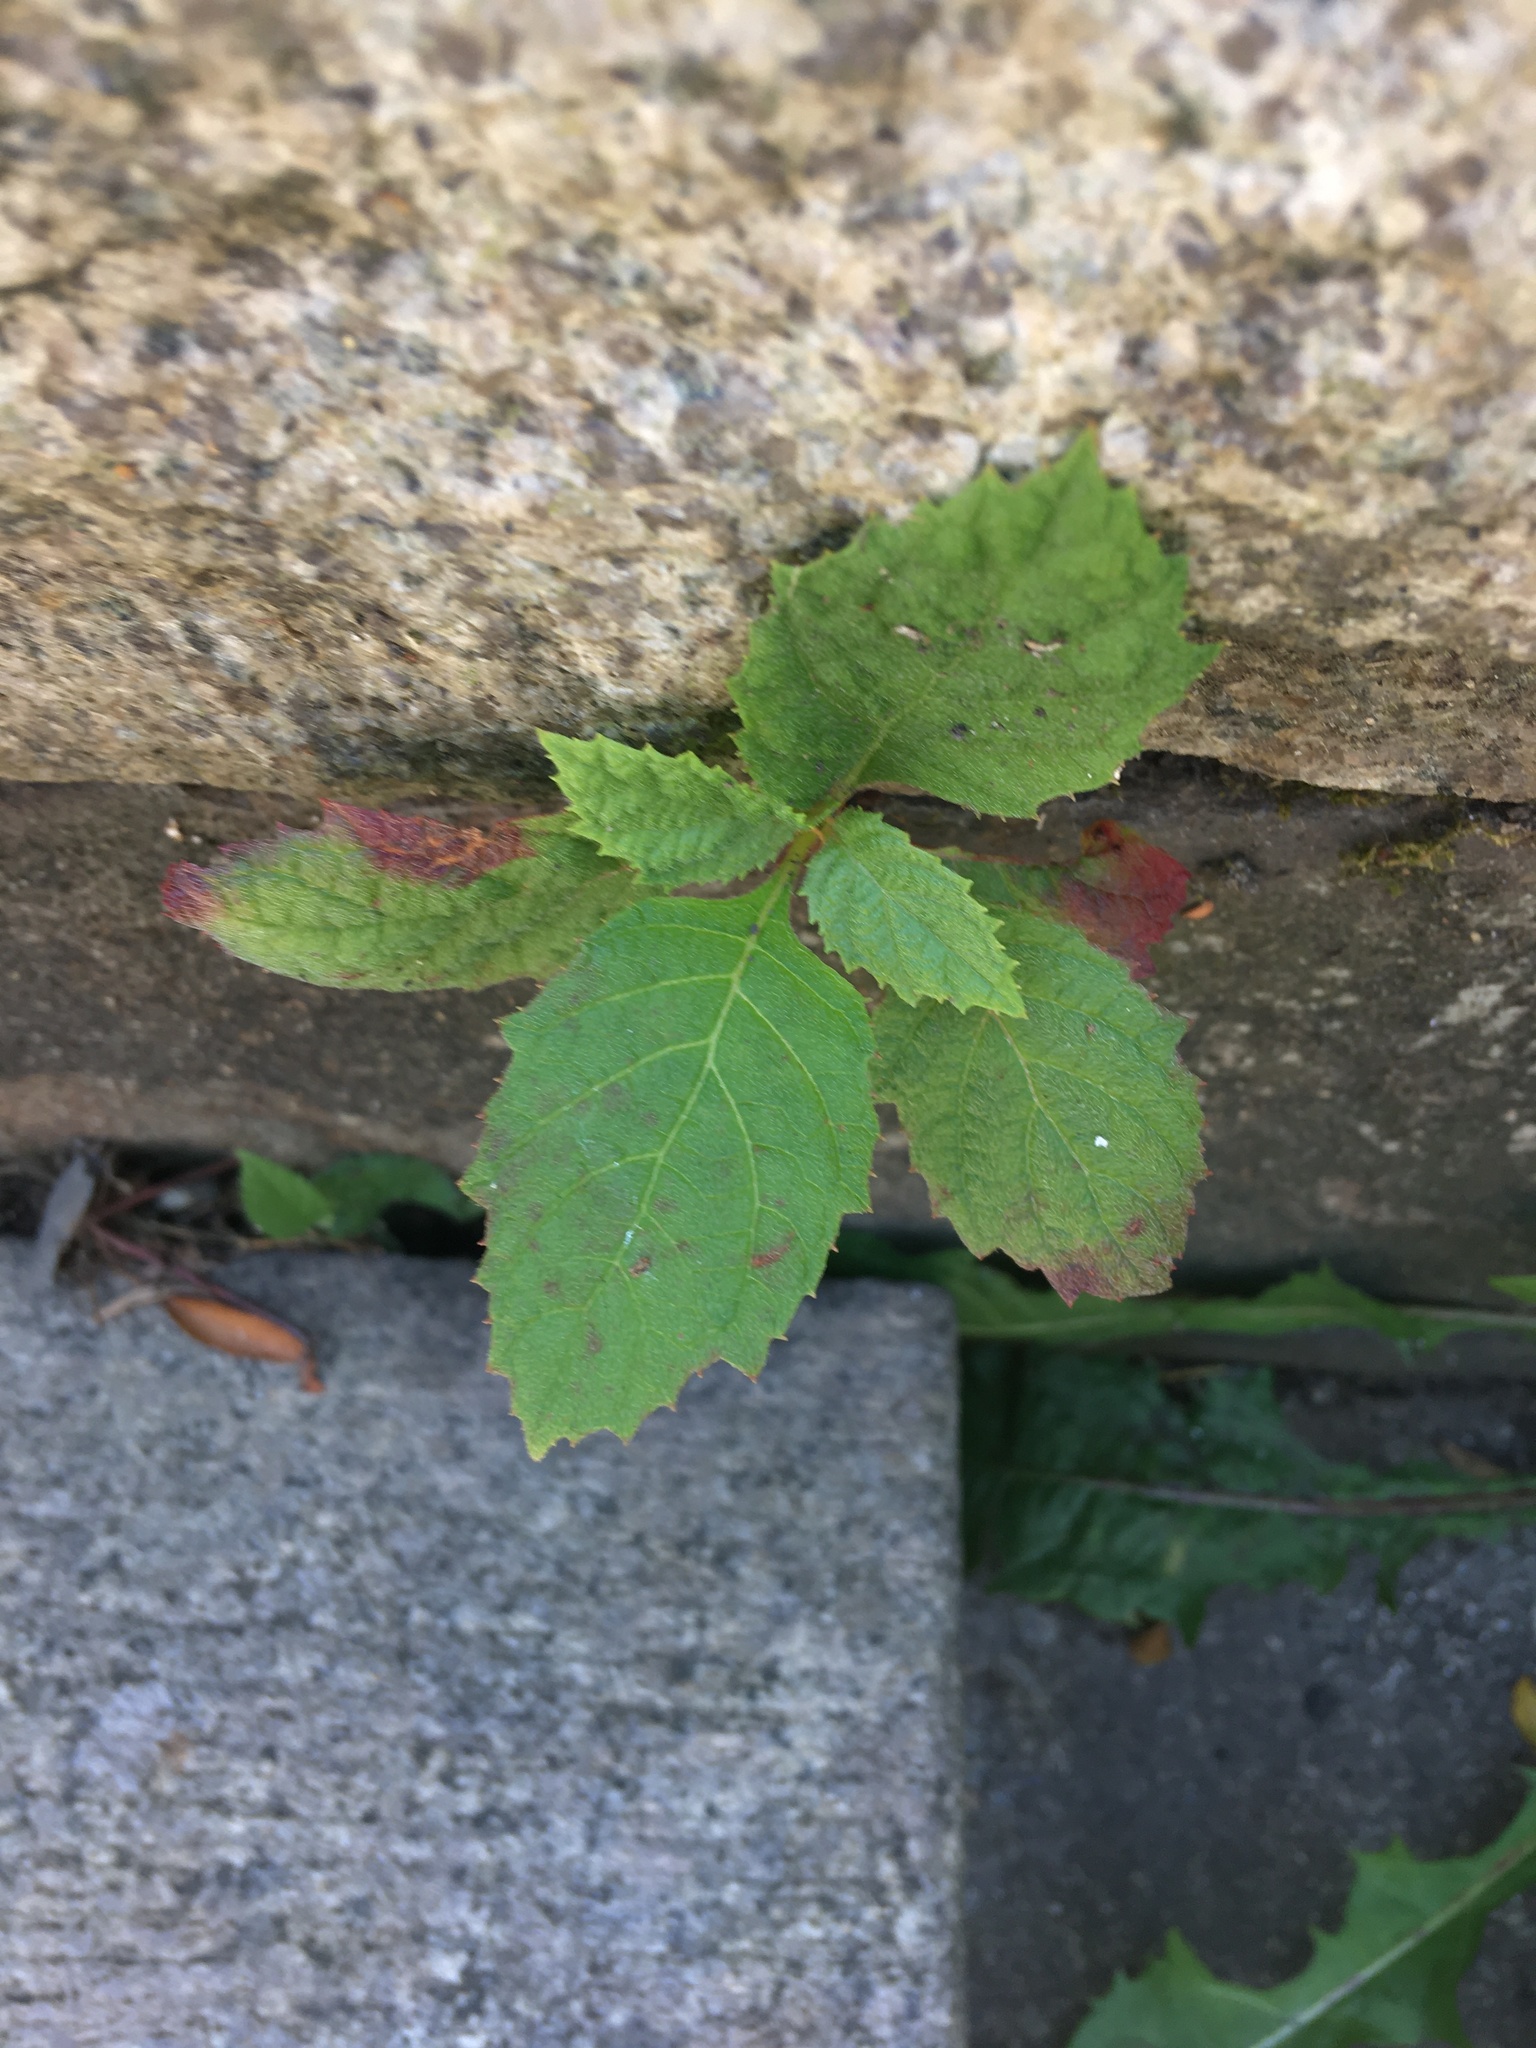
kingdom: Plantae
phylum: Tracheophyta
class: Magnoliopsida
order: Cornales
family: Hydrangeaceae
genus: Hydrangea
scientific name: Hydrangea quercifolia
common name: Oak-leaf hydrangea
